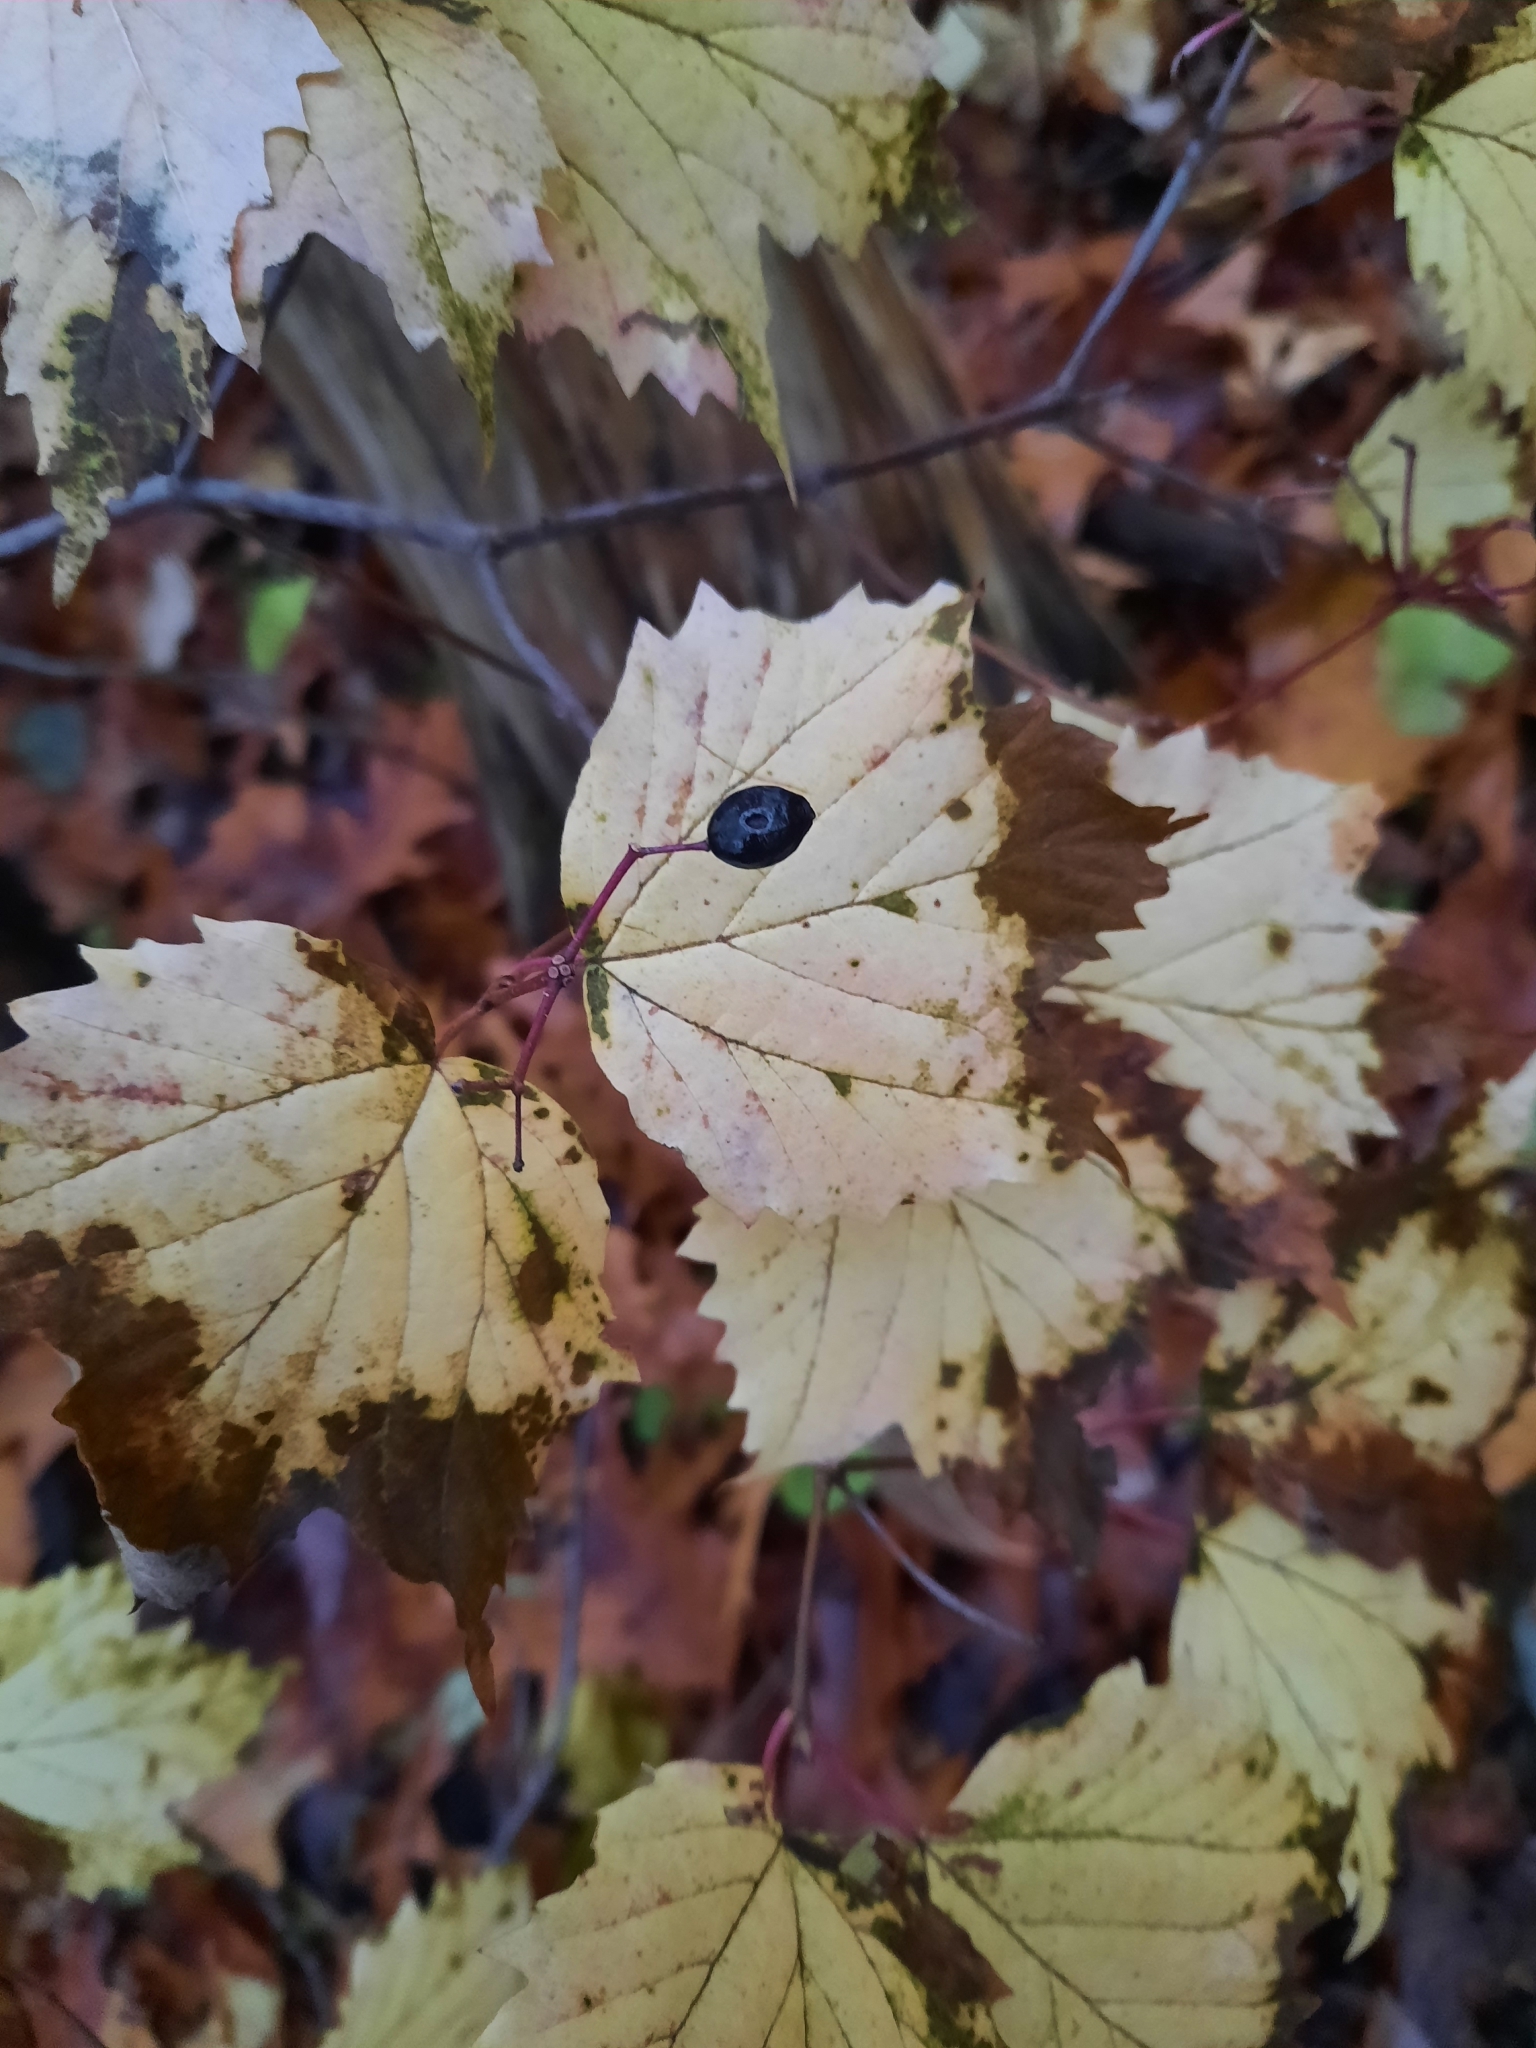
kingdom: Plantae
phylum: Tracheophyta
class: Magnoliopsida
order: Dipsacales
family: Viburnaceae
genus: Viburnum
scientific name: Viburnum acerifolium
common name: Dockmackie
